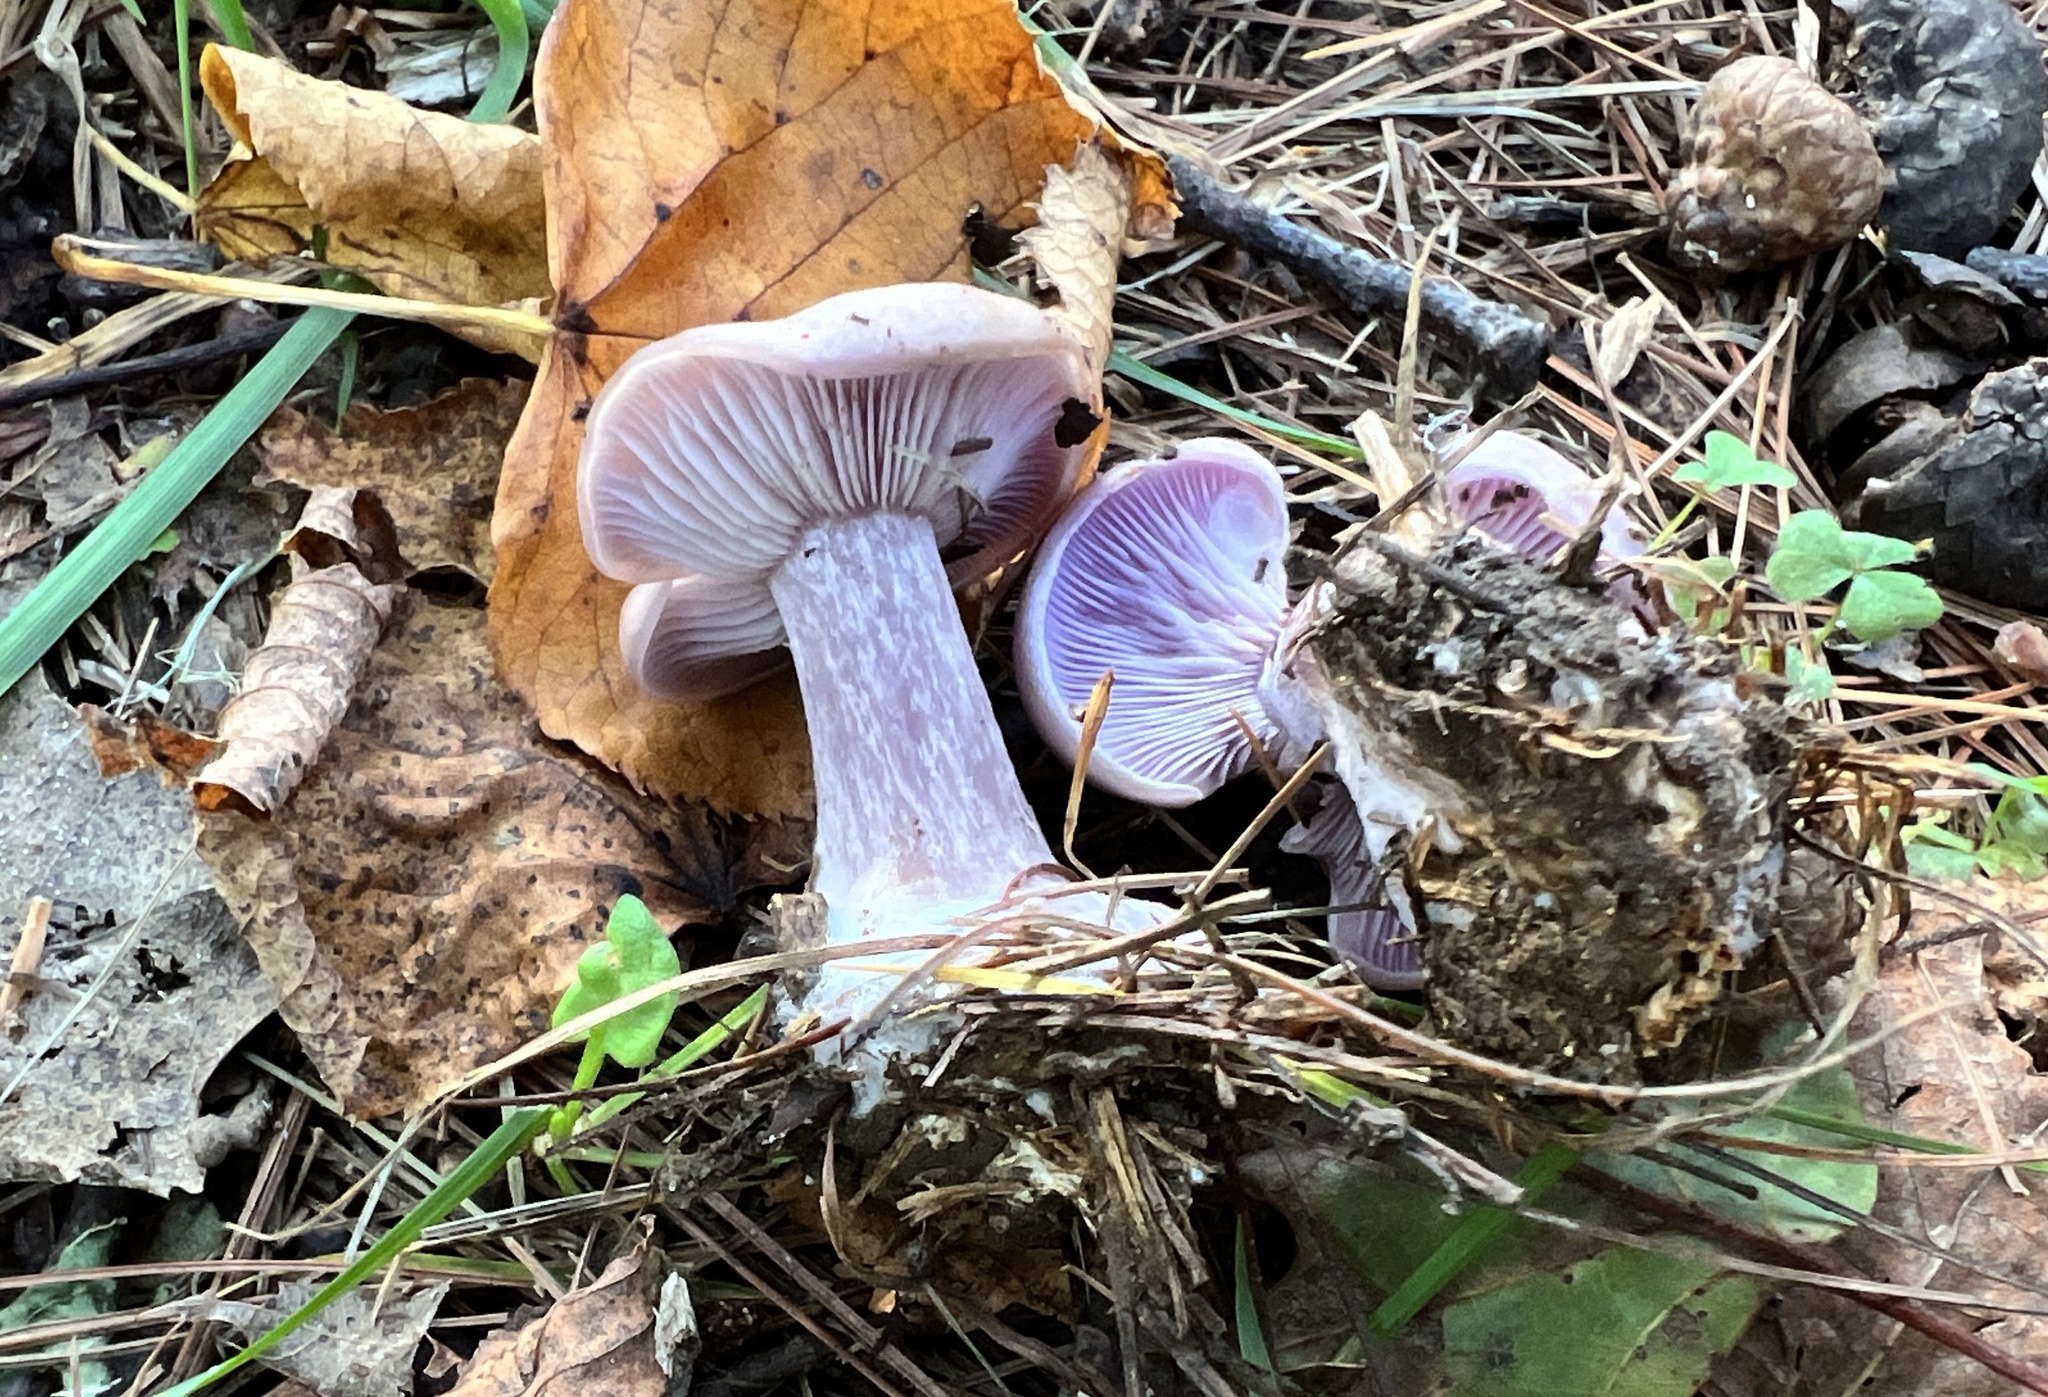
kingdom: Fungi
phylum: Basidiomycota
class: Agaricomycetes
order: Agaricales
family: Tricholomataceae
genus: Collybia
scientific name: Collybia
